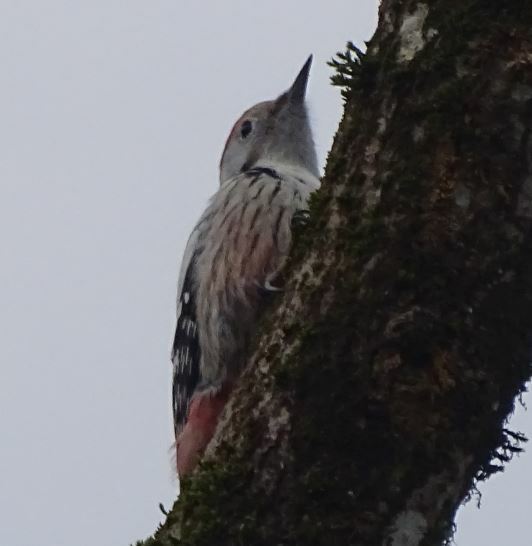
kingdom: Animalia
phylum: Chordata
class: Aves
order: Piciformes
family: Picidae
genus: Dendrocoptes
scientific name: Dendrocoptes medius
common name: Middle spotted woodpecker
